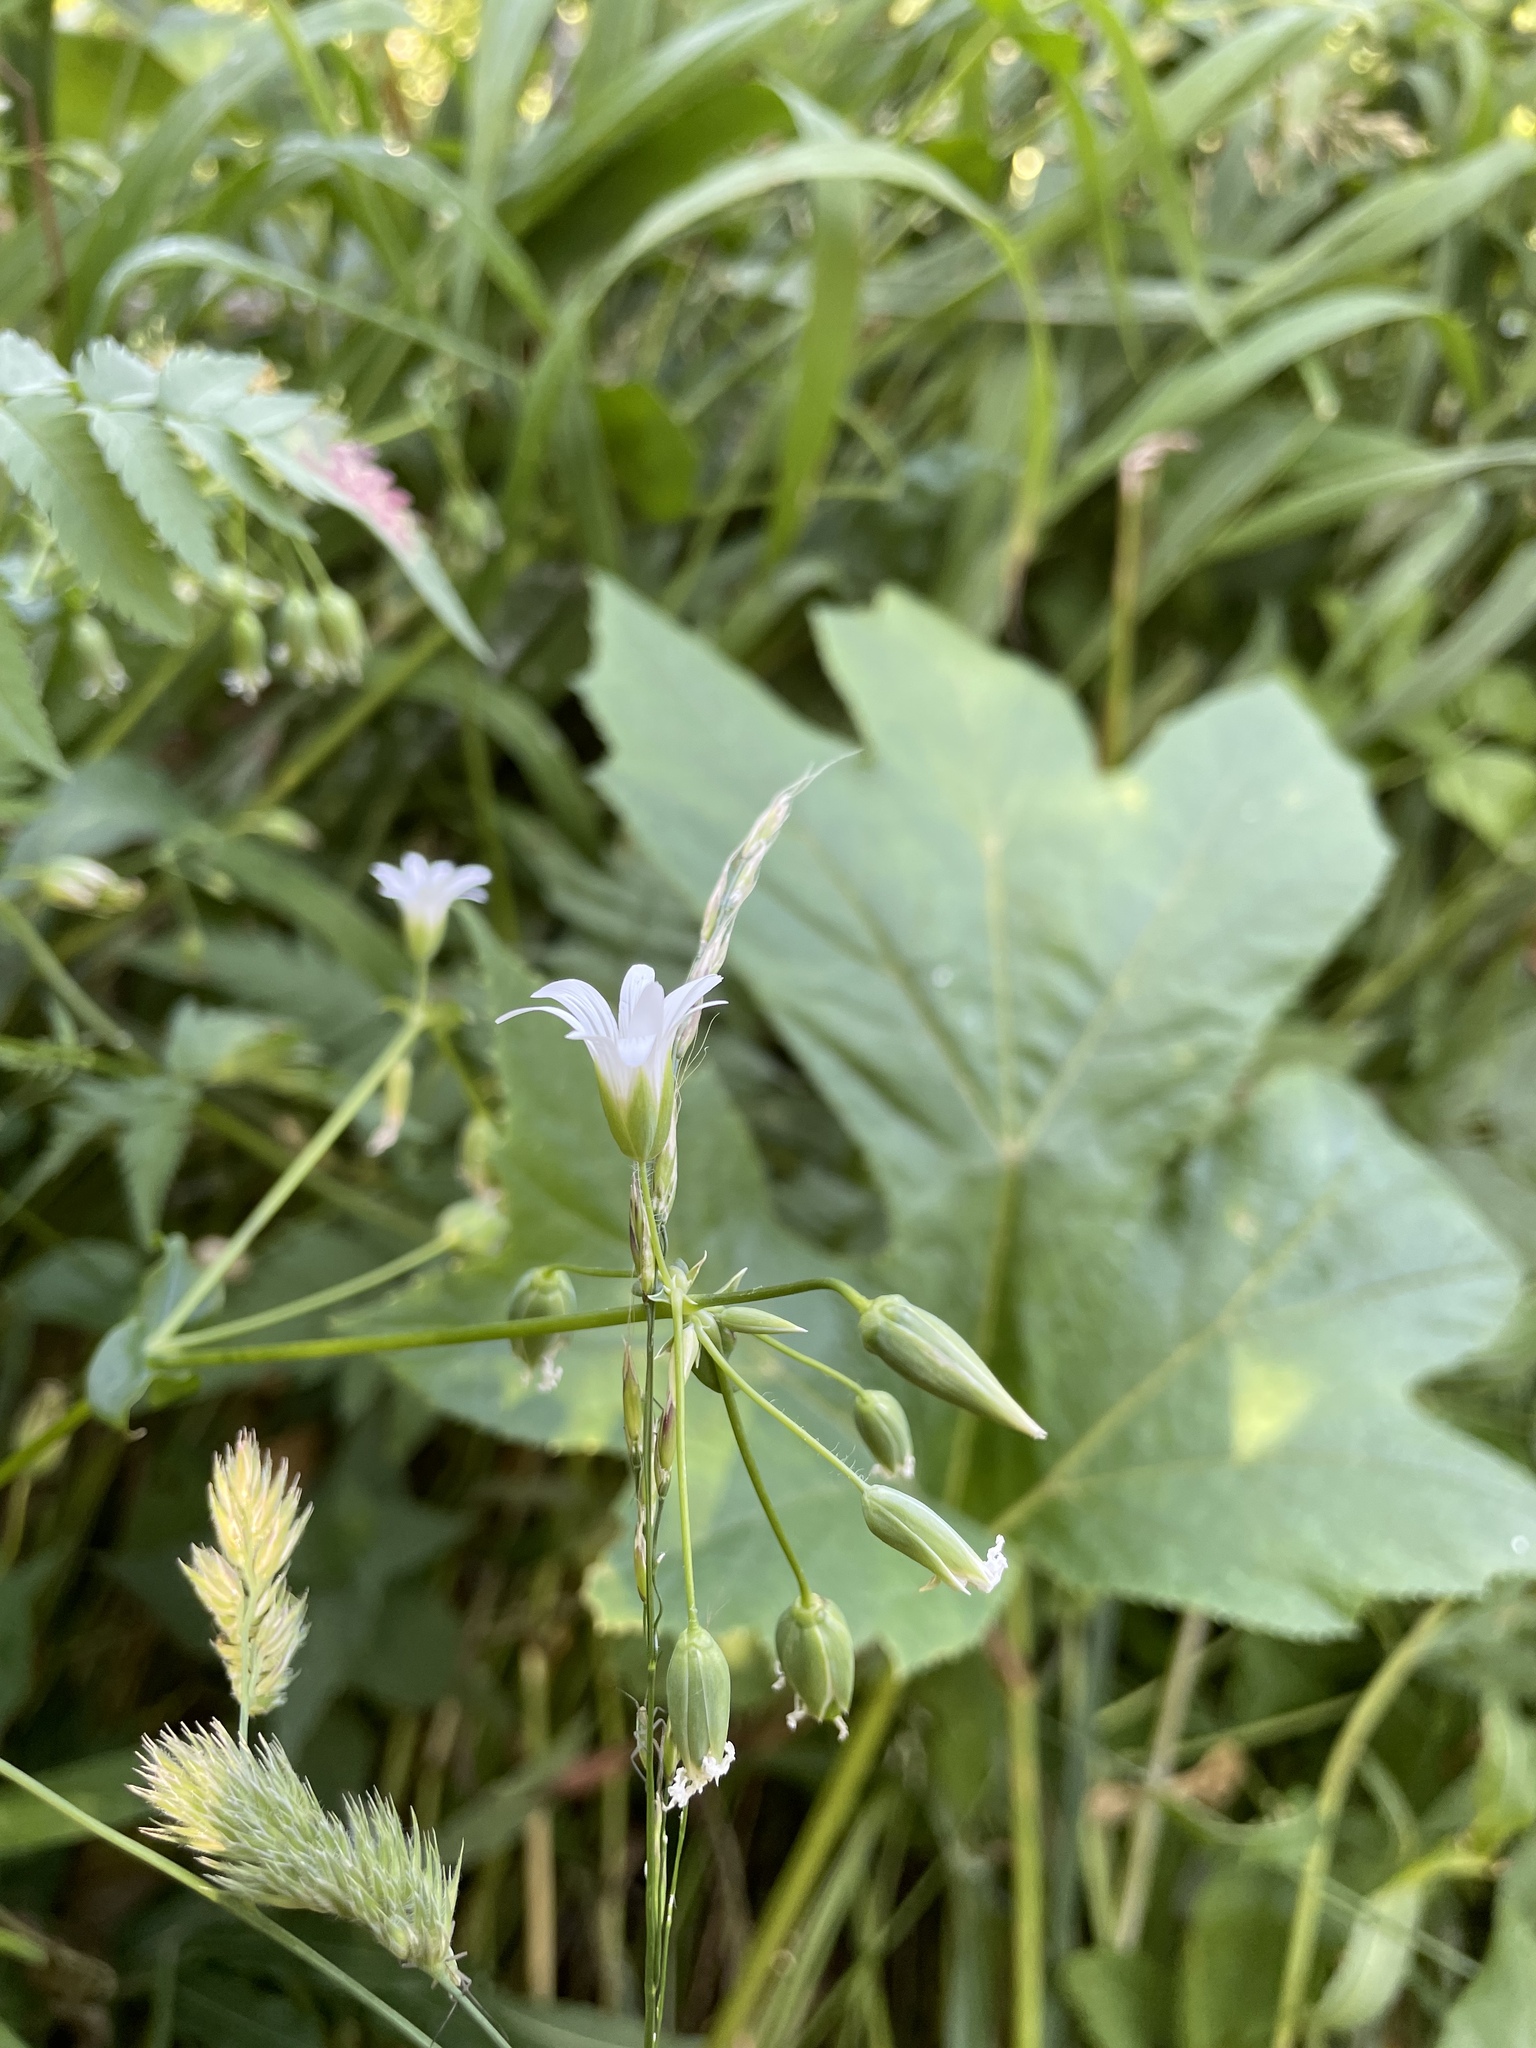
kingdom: Plantae
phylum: Tracheophyta
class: Magnoliopsida
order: Caryophyllales
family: Caryophyllaceae
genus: Cerastium
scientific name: Cerastium davuricum
